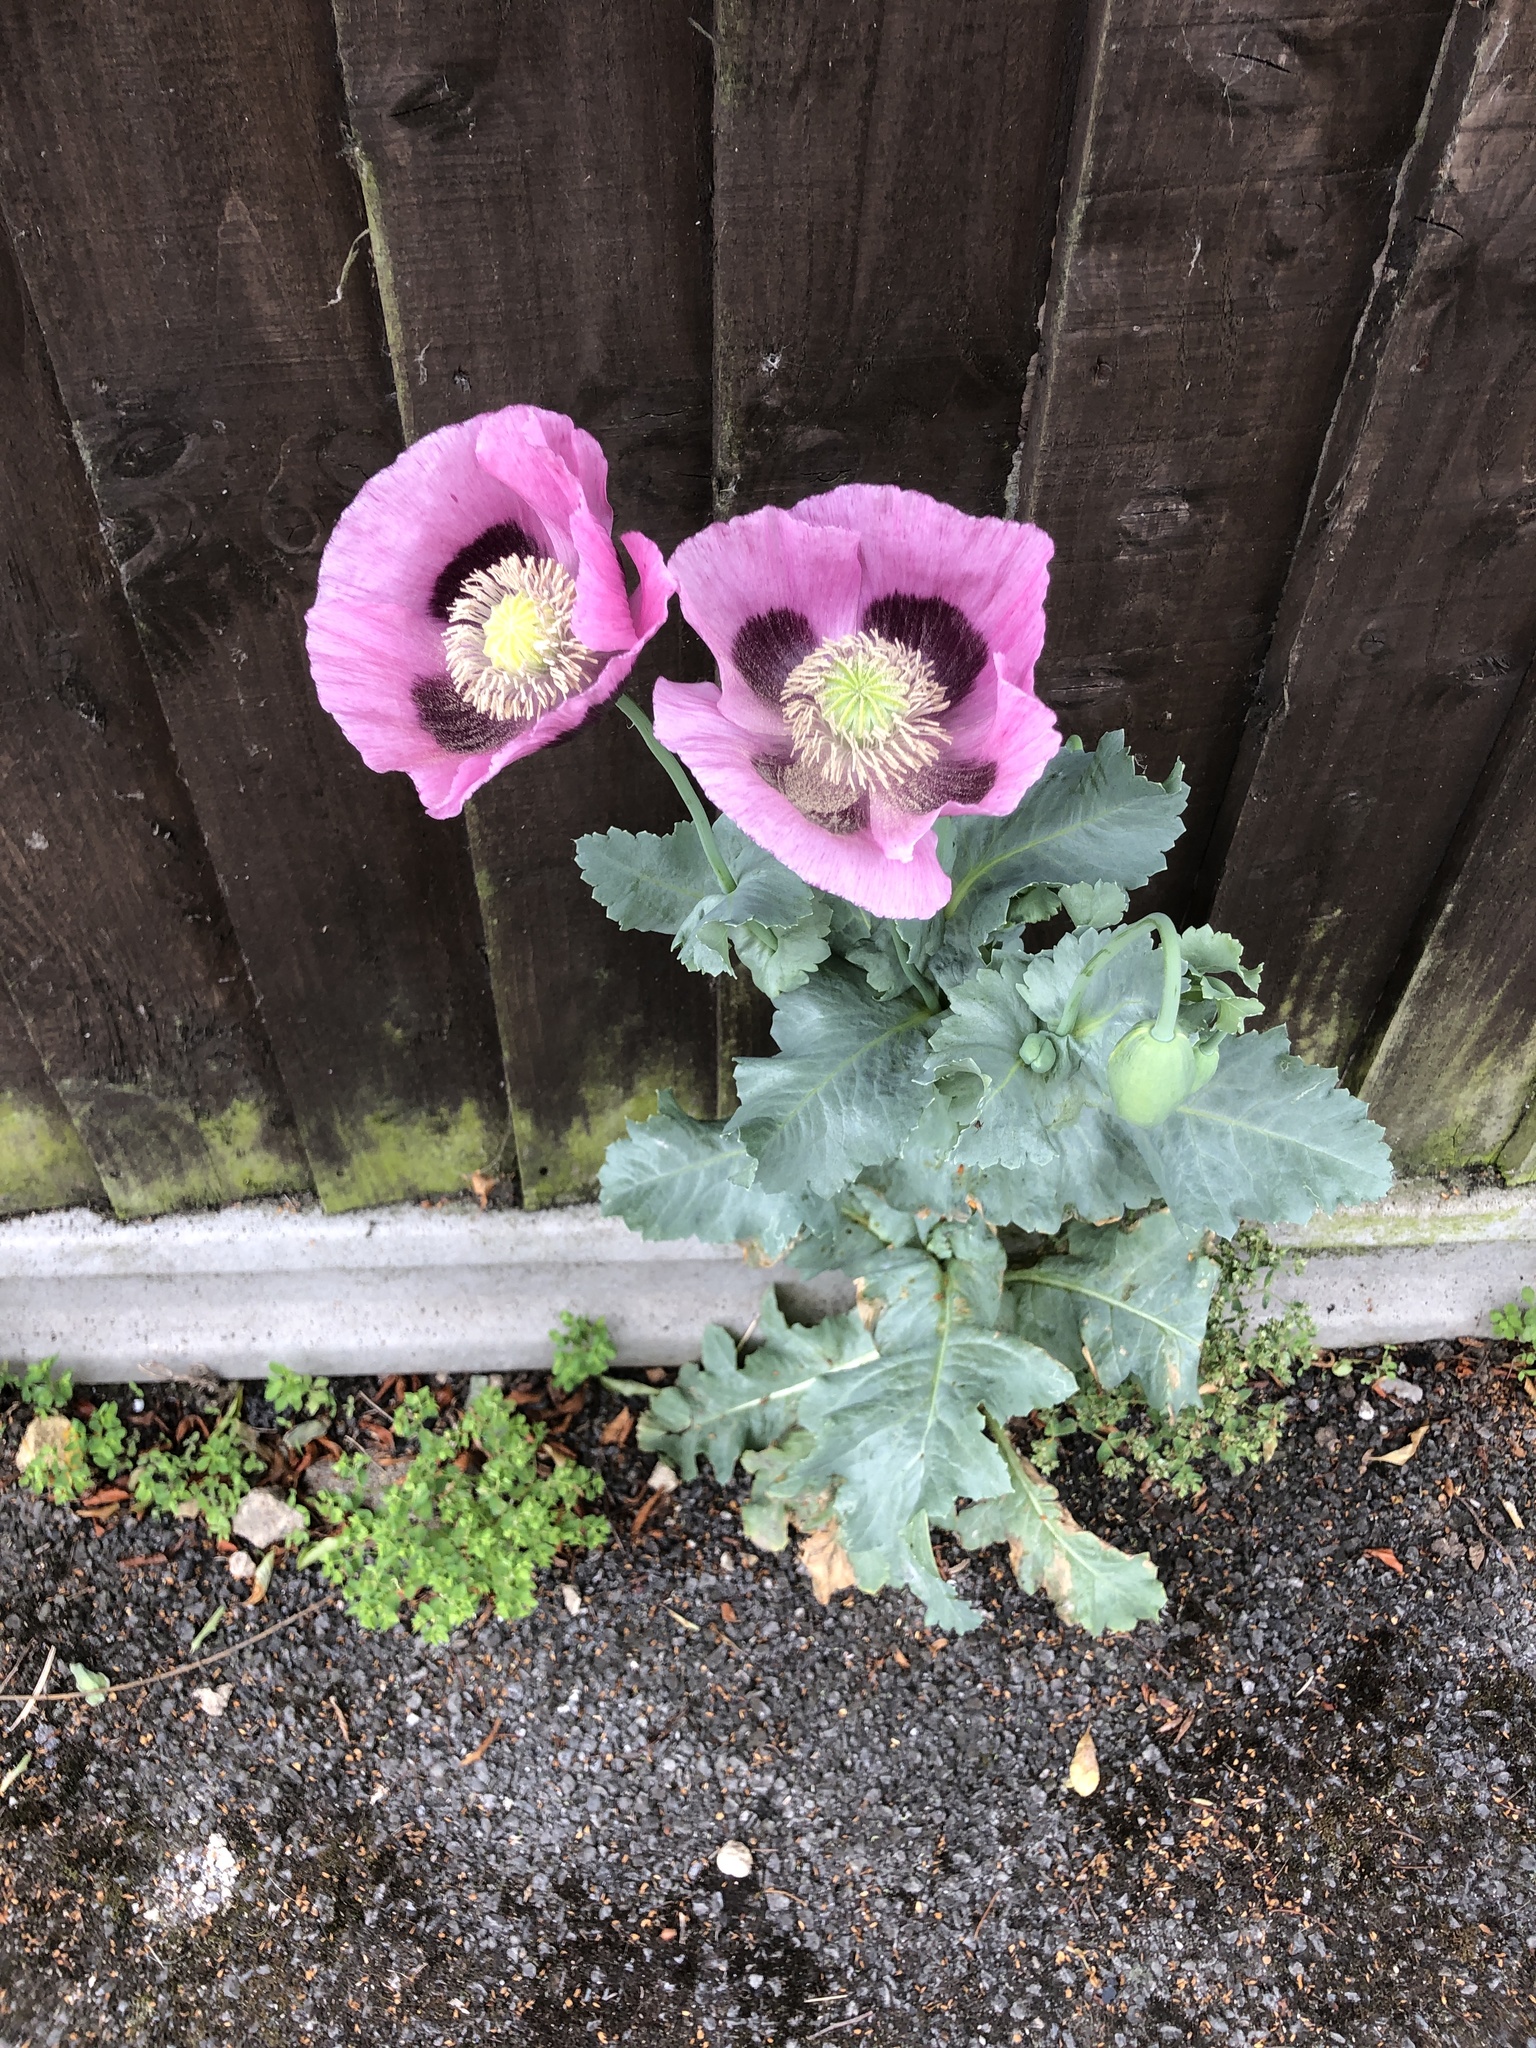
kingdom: Plantae
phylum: Tracheophyta
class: Magnoliopsida
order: Ranunculales
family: Papaveraceae
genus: Papaver
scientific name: Papaver somniferum
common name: Opium poppy
